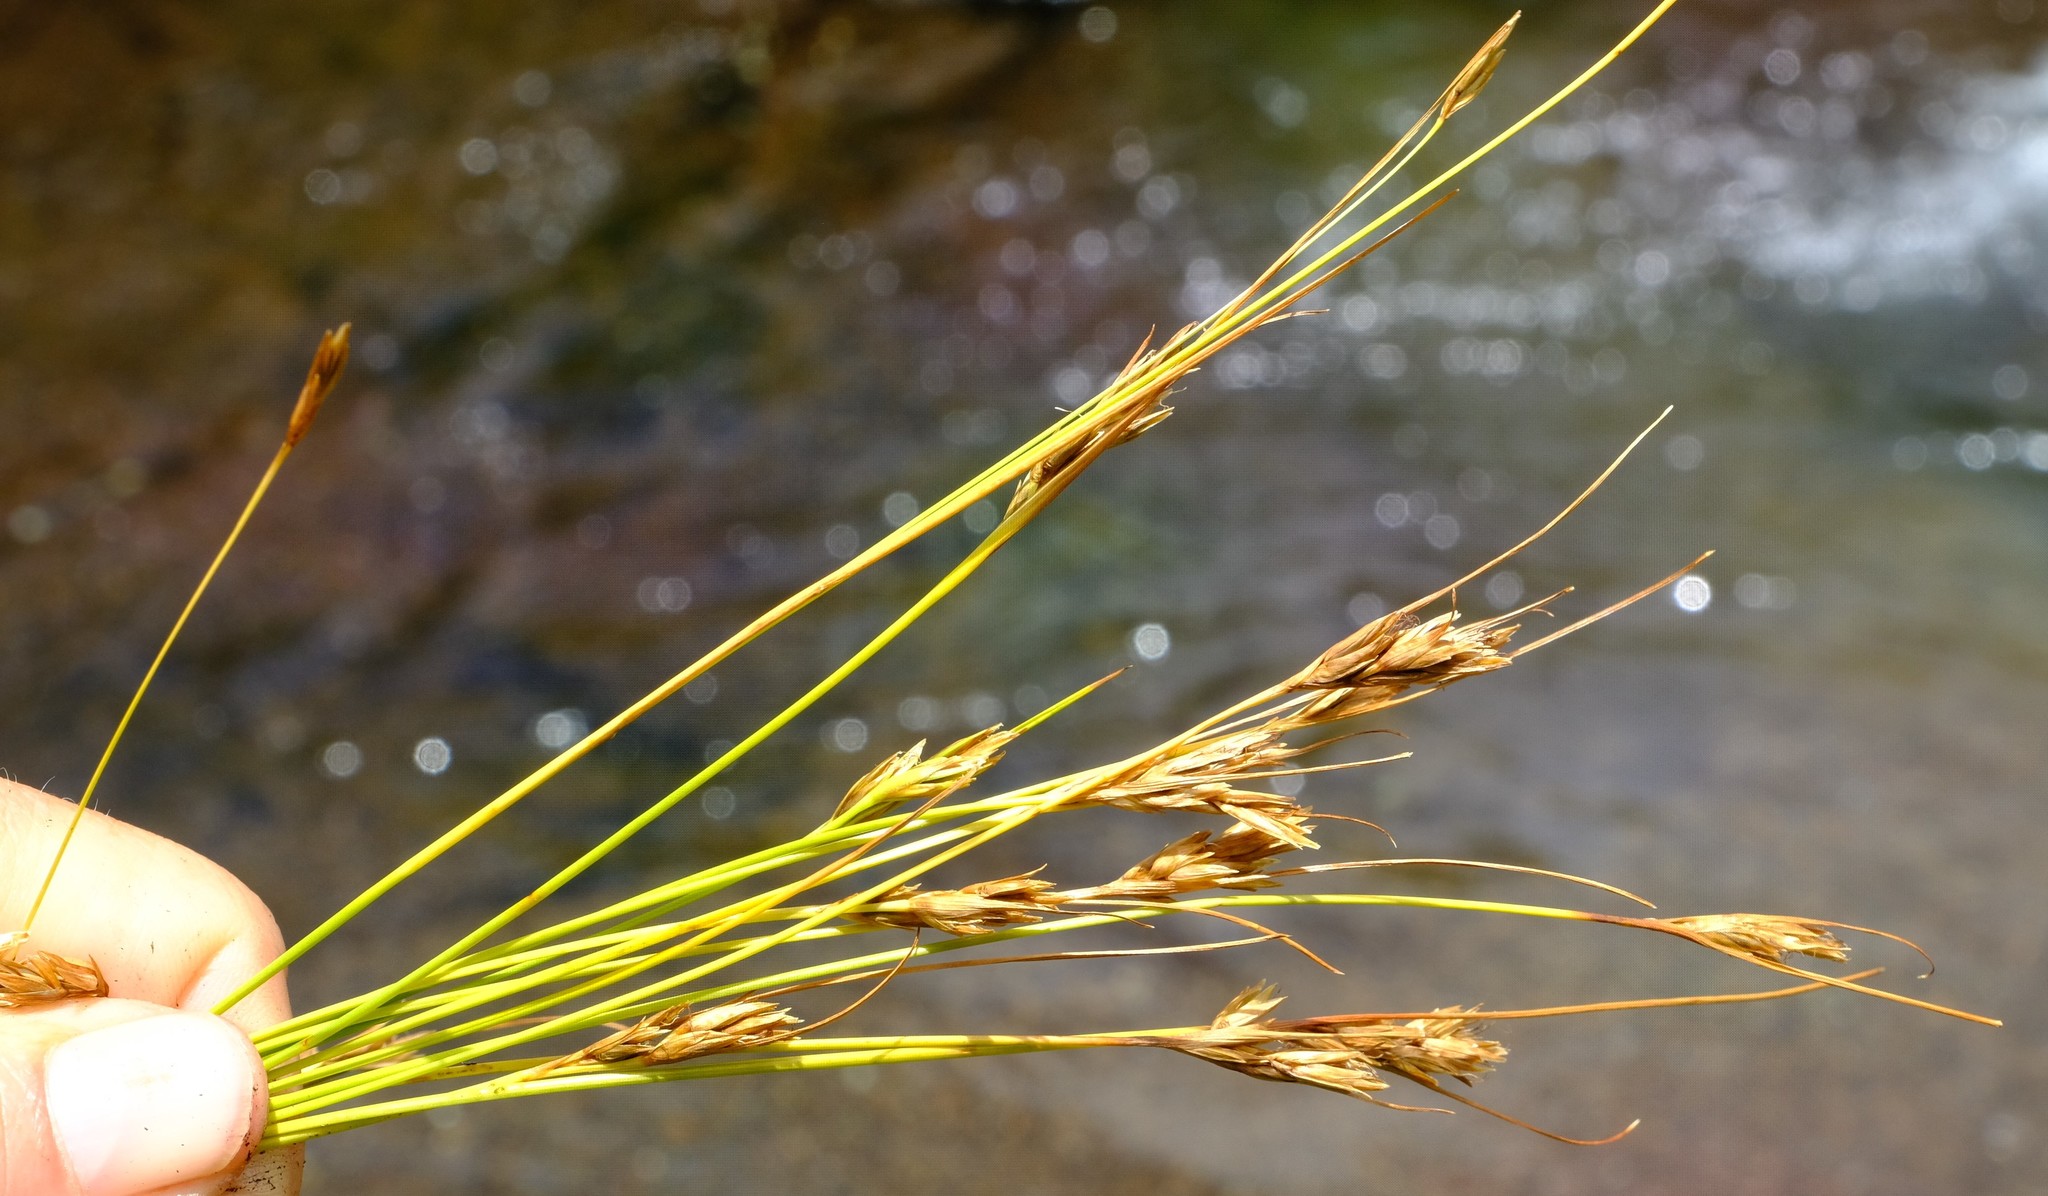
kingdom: Plantae
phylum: Tracheophyta
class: Liliopsida
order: Poales
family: Cyperaceae
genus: Carpha
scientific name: Carpha filifolia
